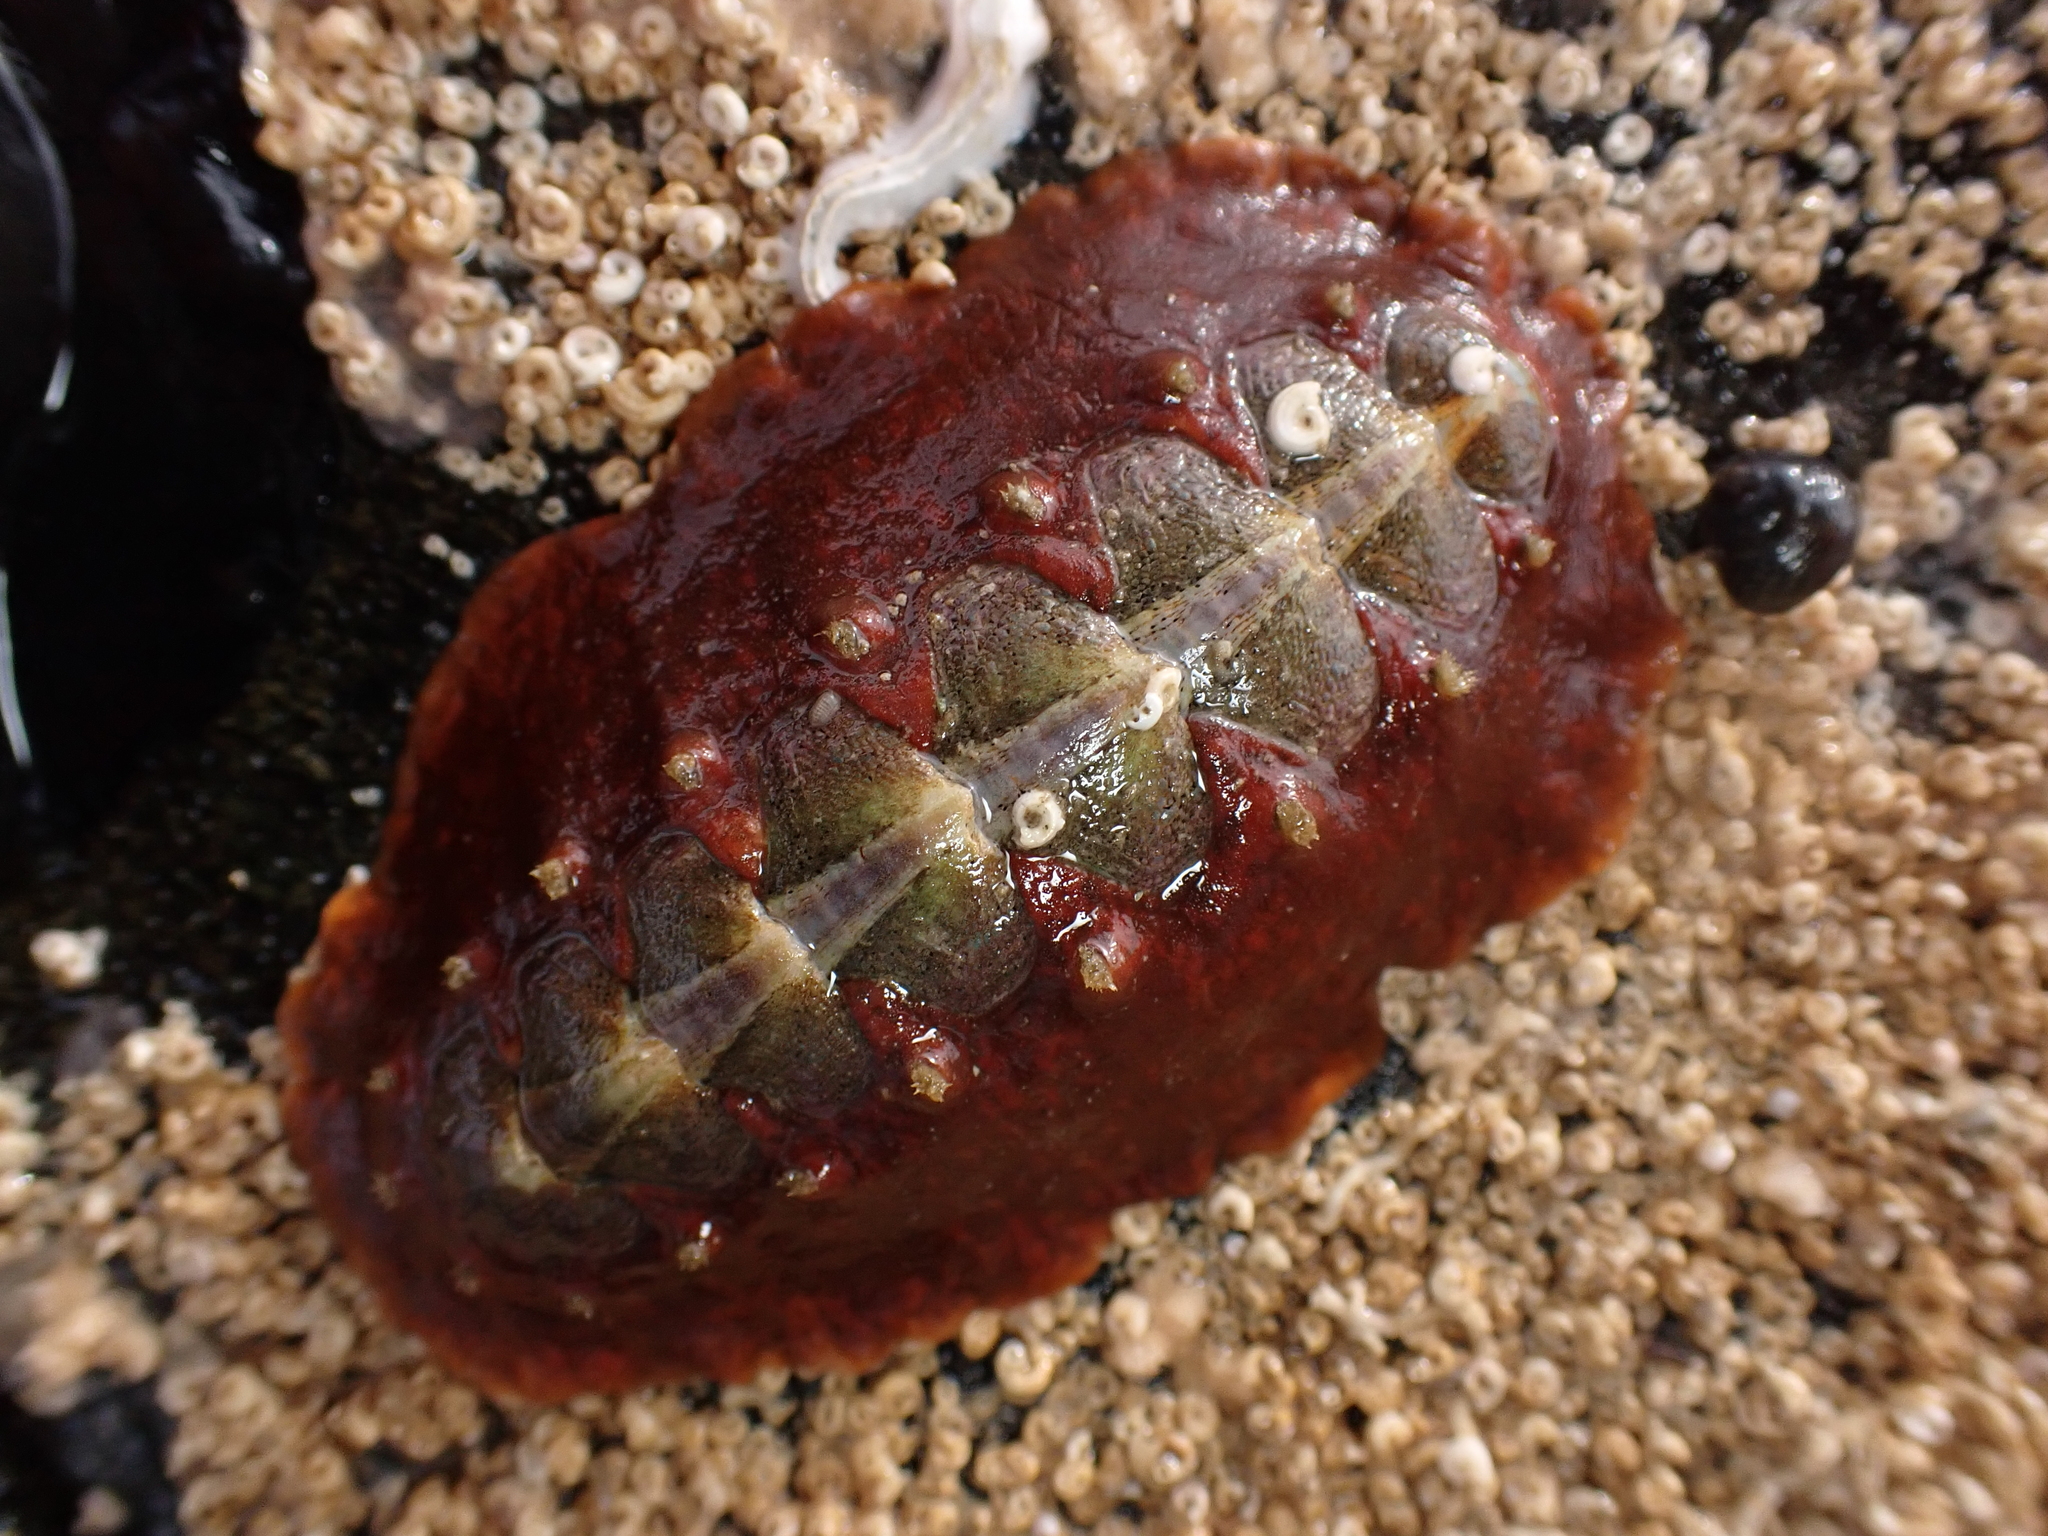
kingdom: Animalia
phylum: Mollusca
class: Polyplacophora
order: Chitonida
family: Acanthochitonidae
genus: Notoplax
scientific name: Notoplax violacea
